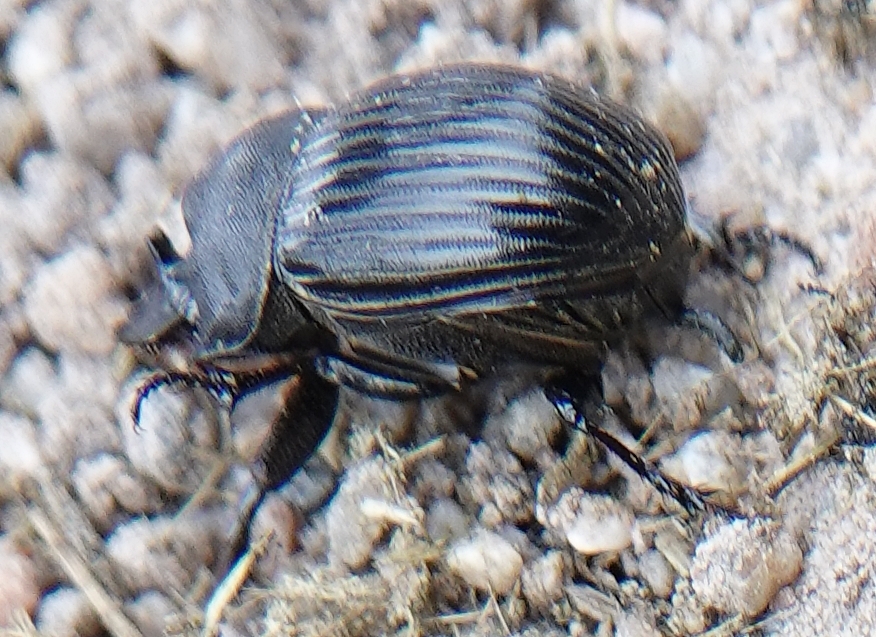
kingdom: Animalia
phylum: Arthropoda
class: Insecta
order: Coleoptera
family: Scarabaeidae
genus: Copris
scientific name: Copris fricator
